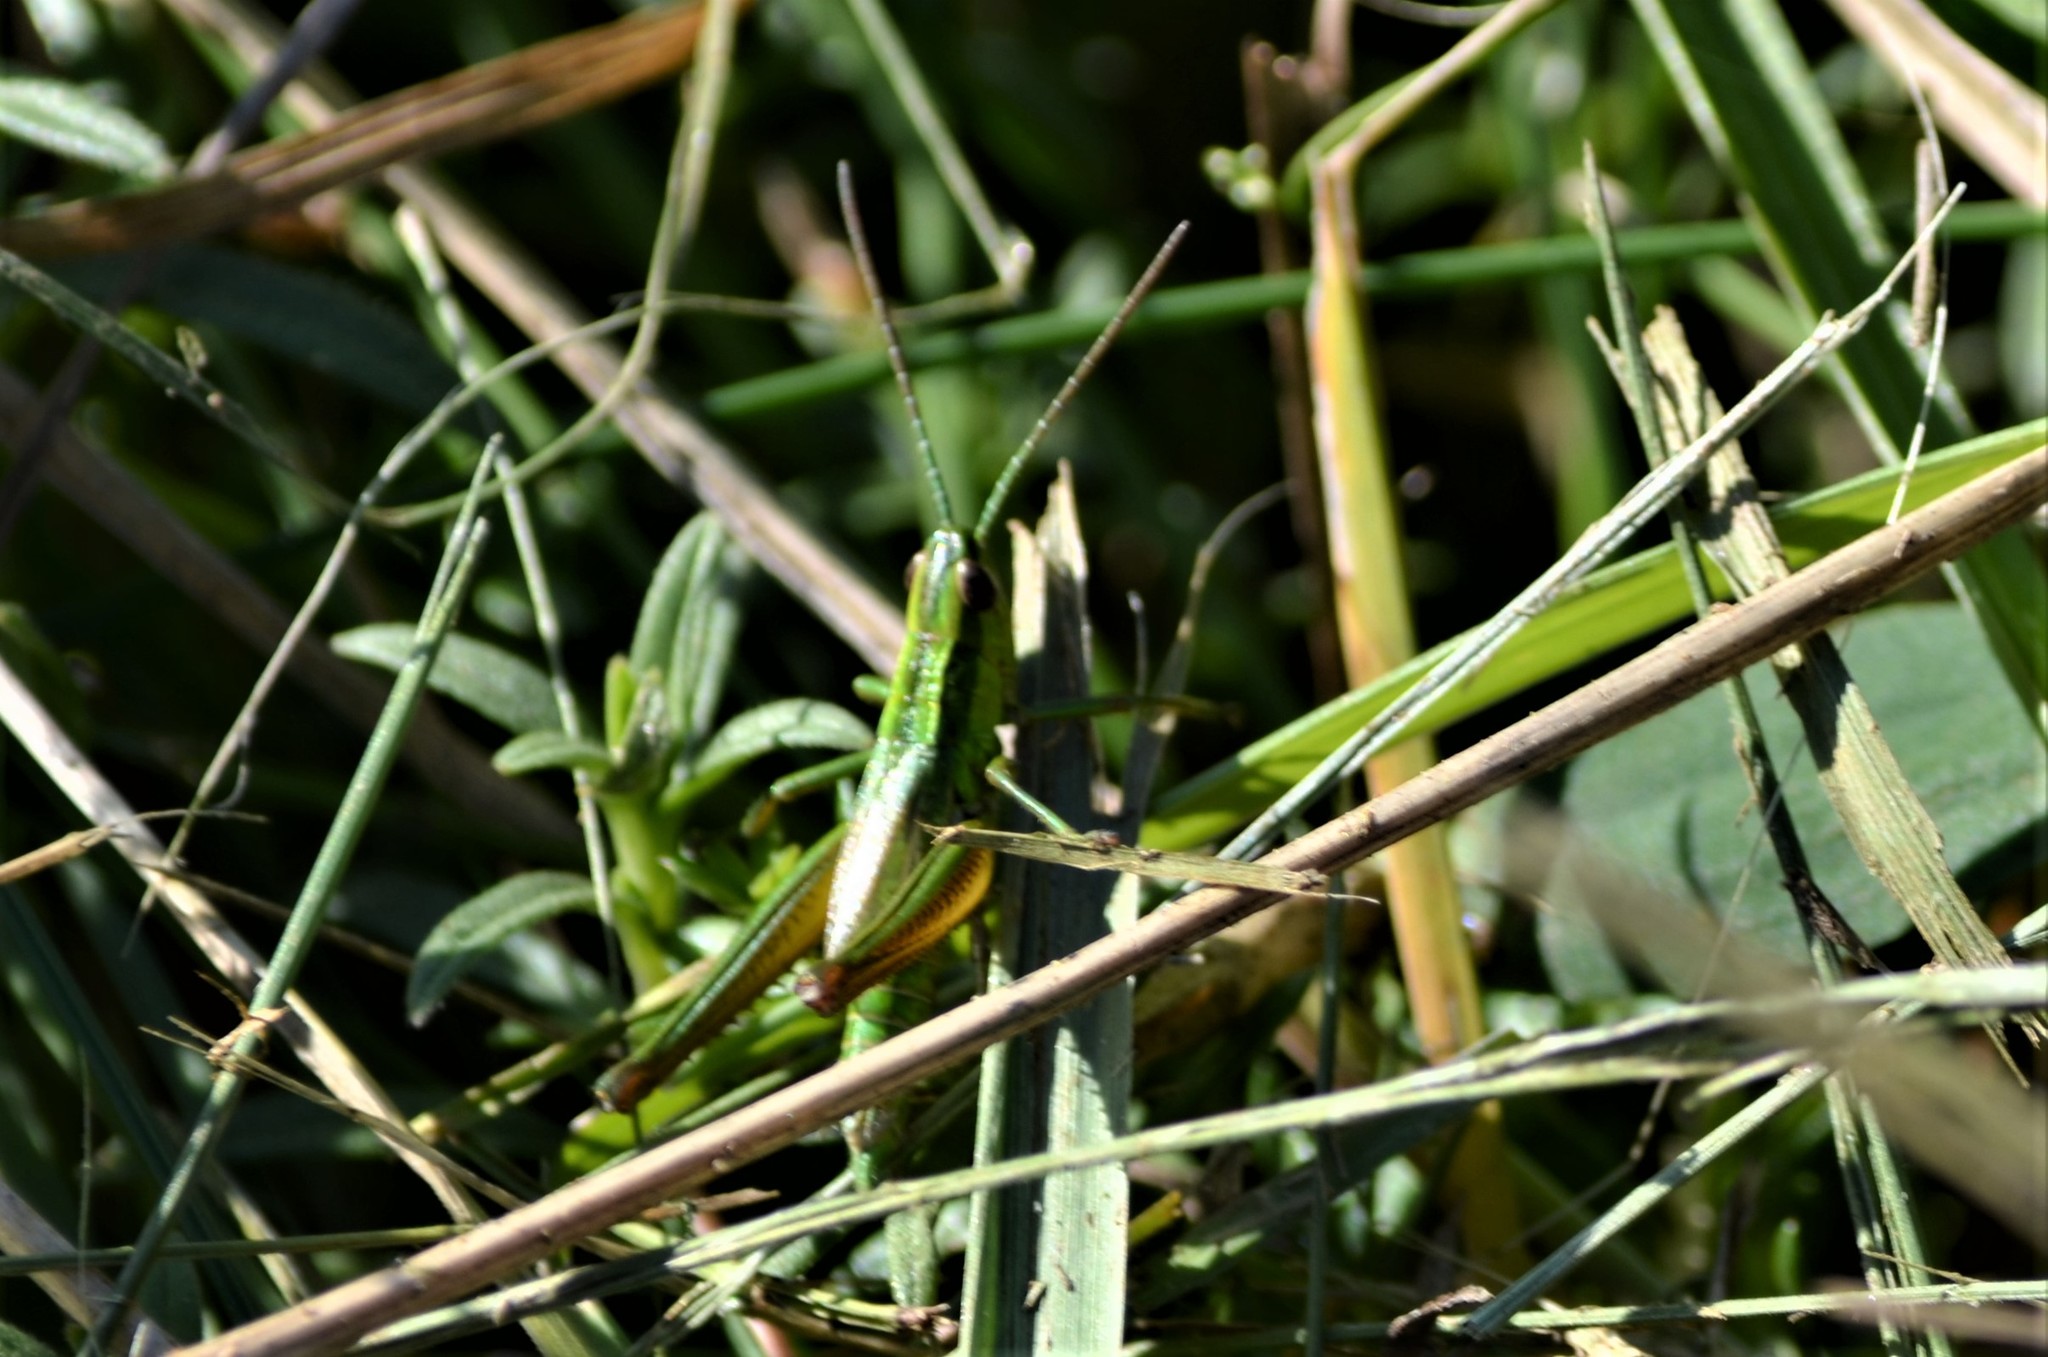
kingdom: Animalia
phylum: Arthropoda
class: Insecta
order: Orthoptera
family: Acrididae
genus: Euthystira
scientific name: Euthystira brachyptera
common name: Small gold grasshopper
